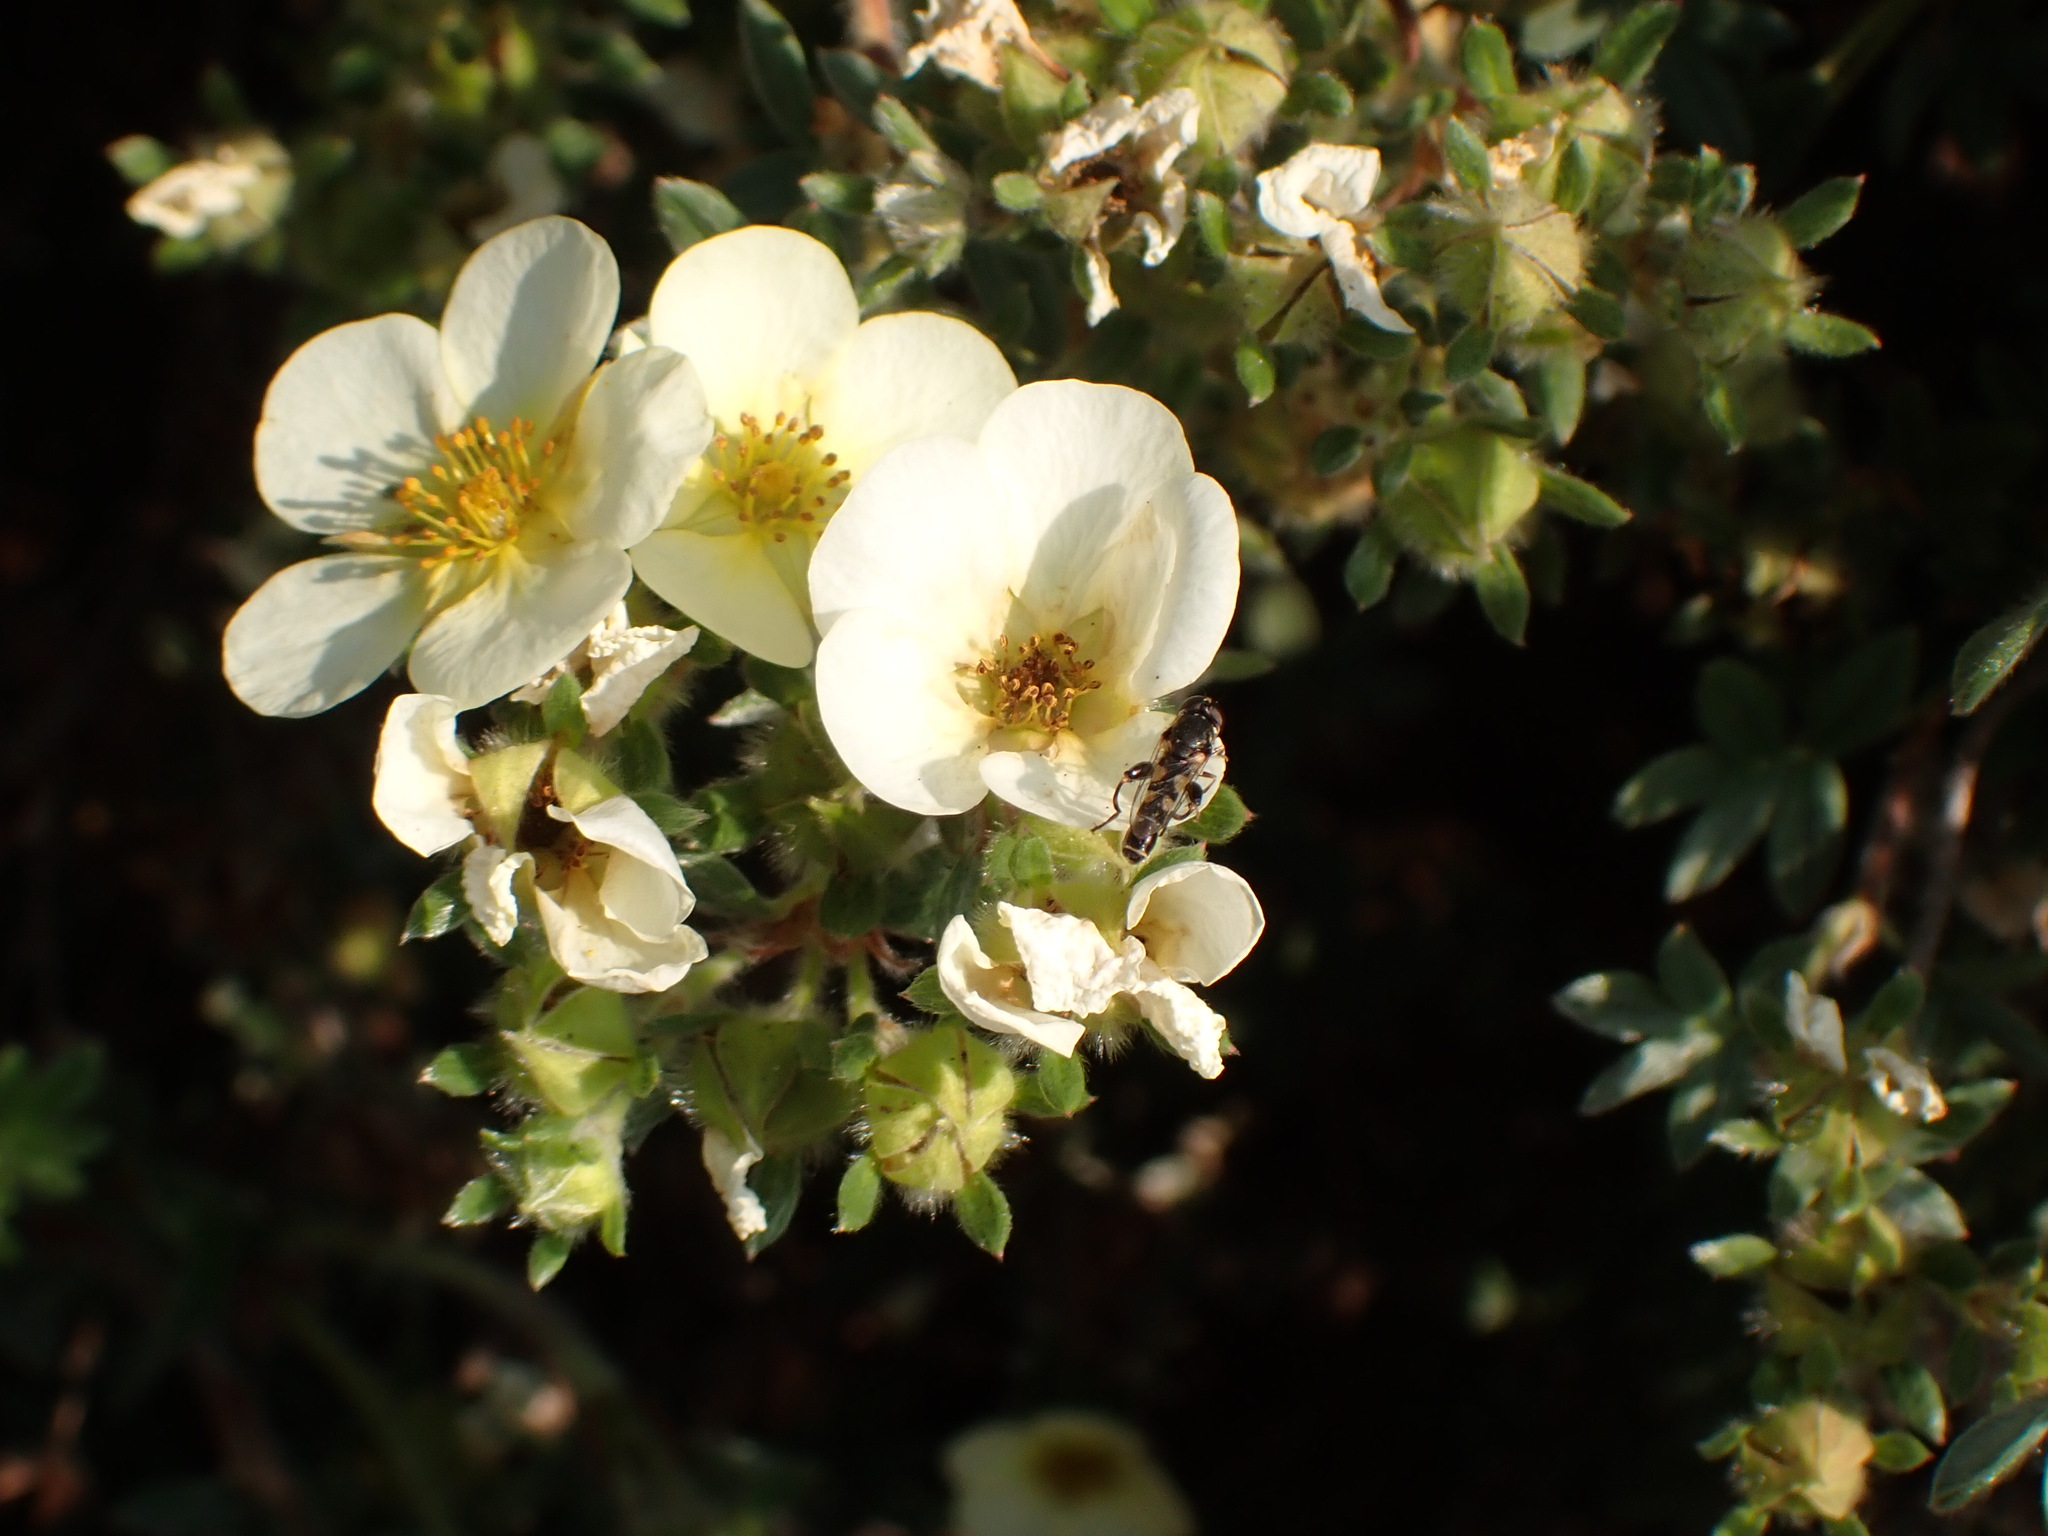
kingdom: Animalia
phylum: Arthropoda
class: Insecta
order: Diptera
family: Syrphidae
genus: Syritta
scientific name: Syritta pipiens
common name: Hover fly
